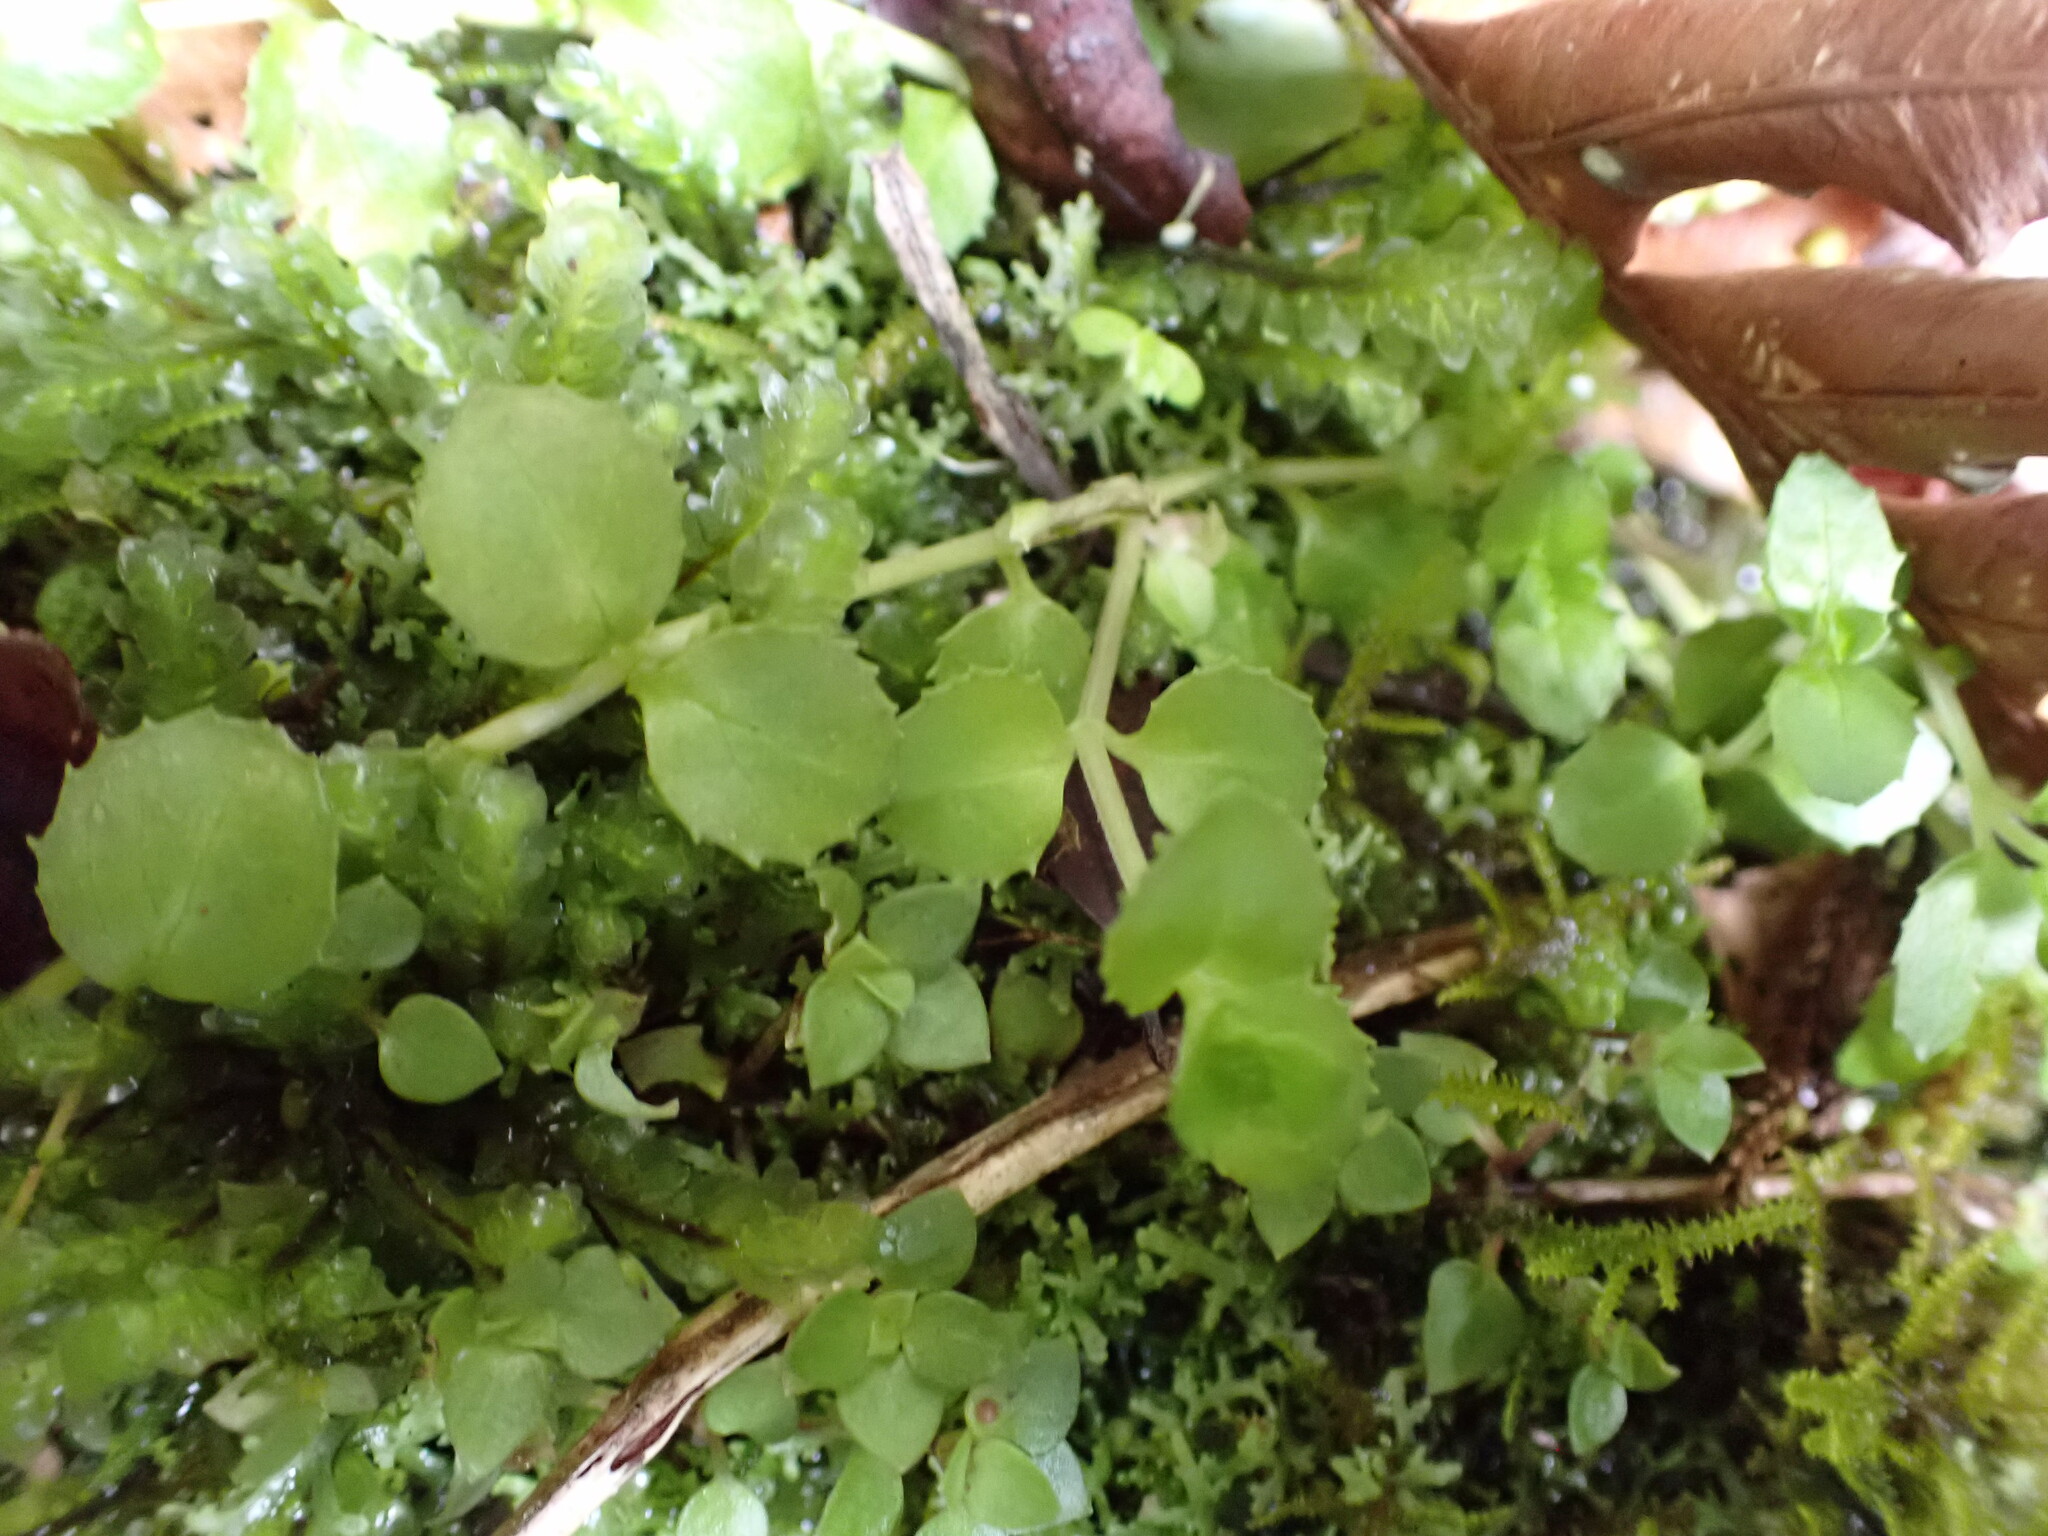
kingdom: Plantae
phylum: Tracheophyta
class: Magnoliopsida
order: Myrtales
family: Onagraceae
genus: Epilobium
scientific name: Epilobium pedunculare
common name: Rockery willowherb
